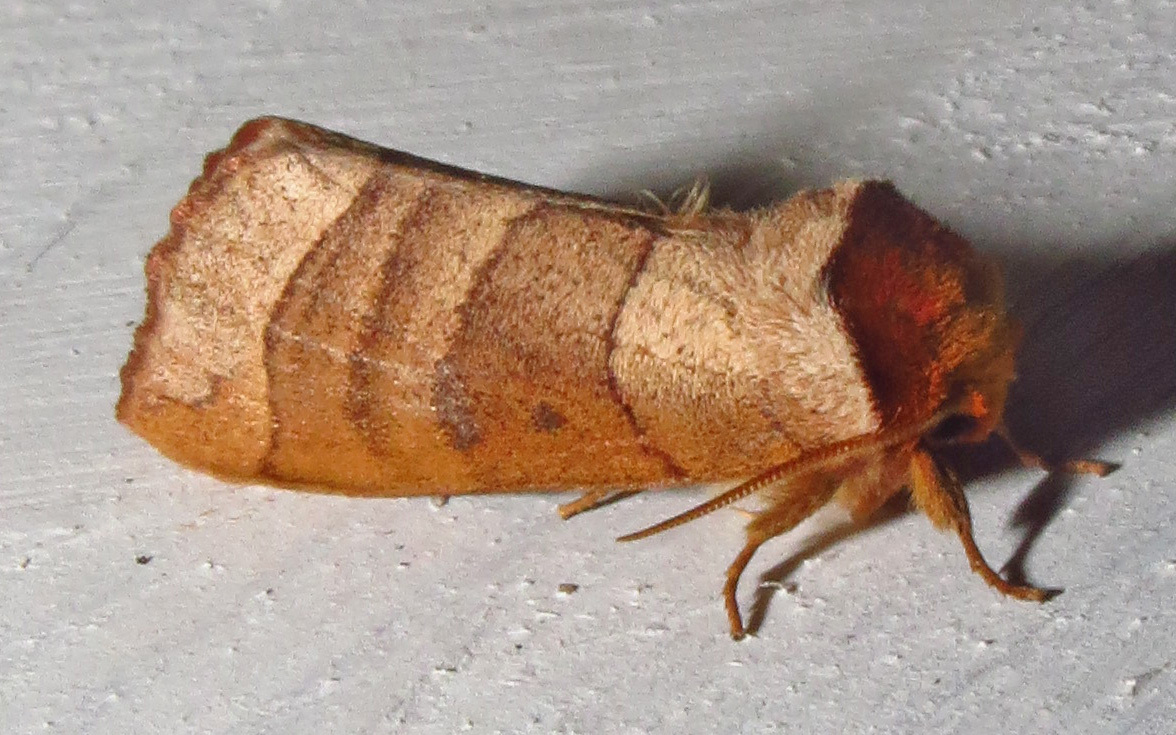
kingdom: Animalia
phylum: Arthropoda
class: Insecta
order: Lepidoptera
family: Notodontidae
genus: Datana
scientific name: Datana
